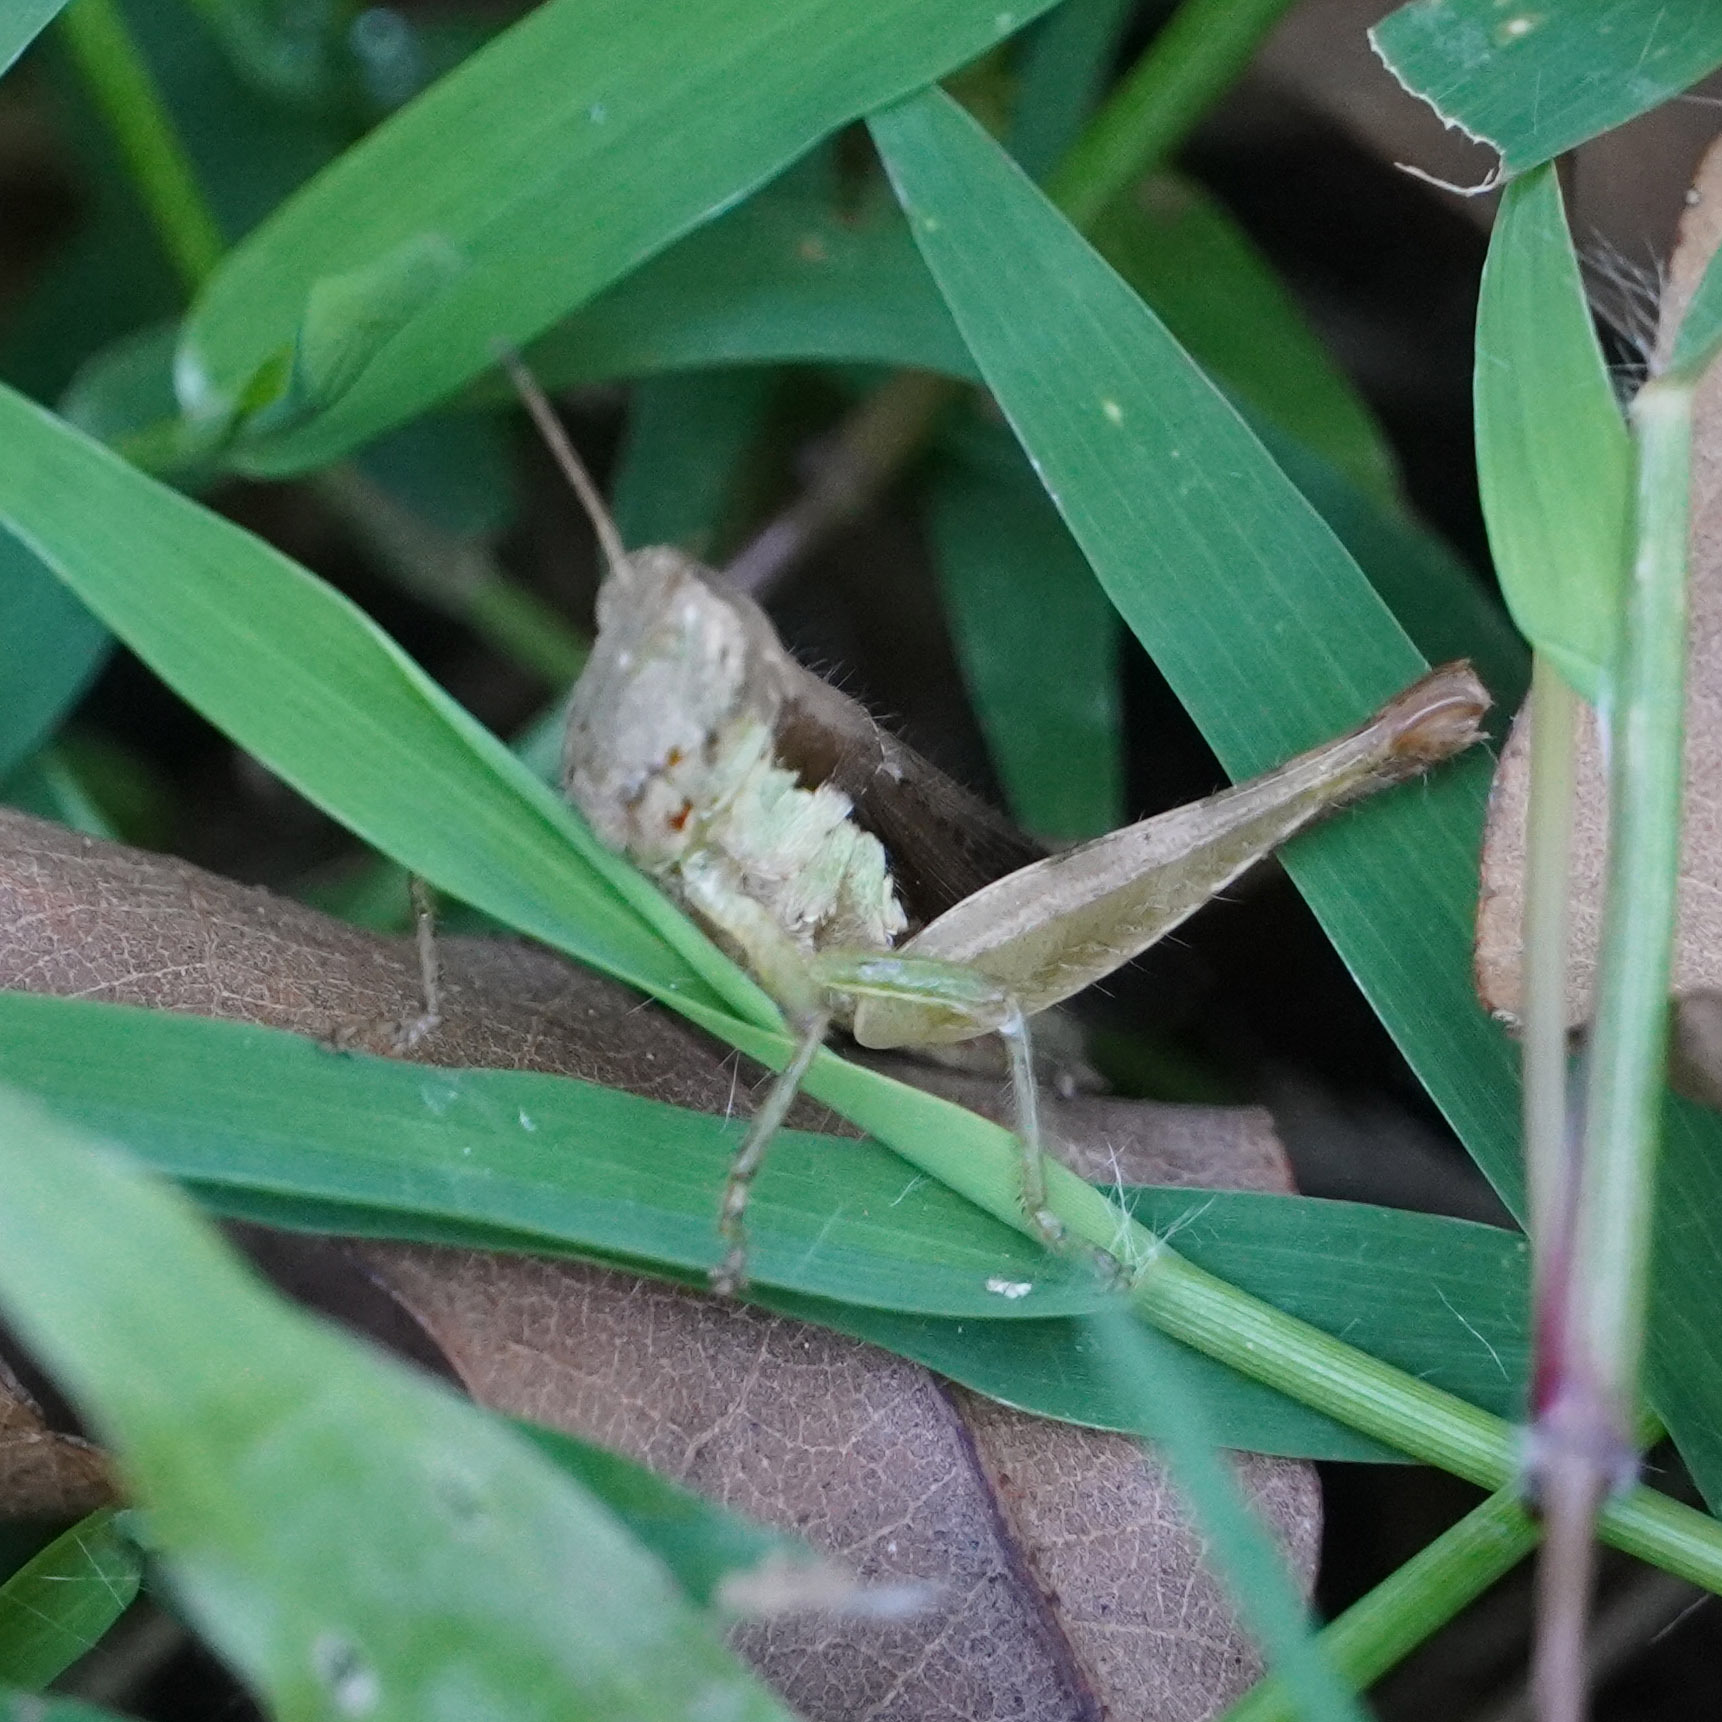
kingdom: Animalia
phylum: Arthropoda
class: Insecta
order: Orthoptera
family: Acrididae
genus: Pseudoxya
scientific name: Pseudoxya diminuta
